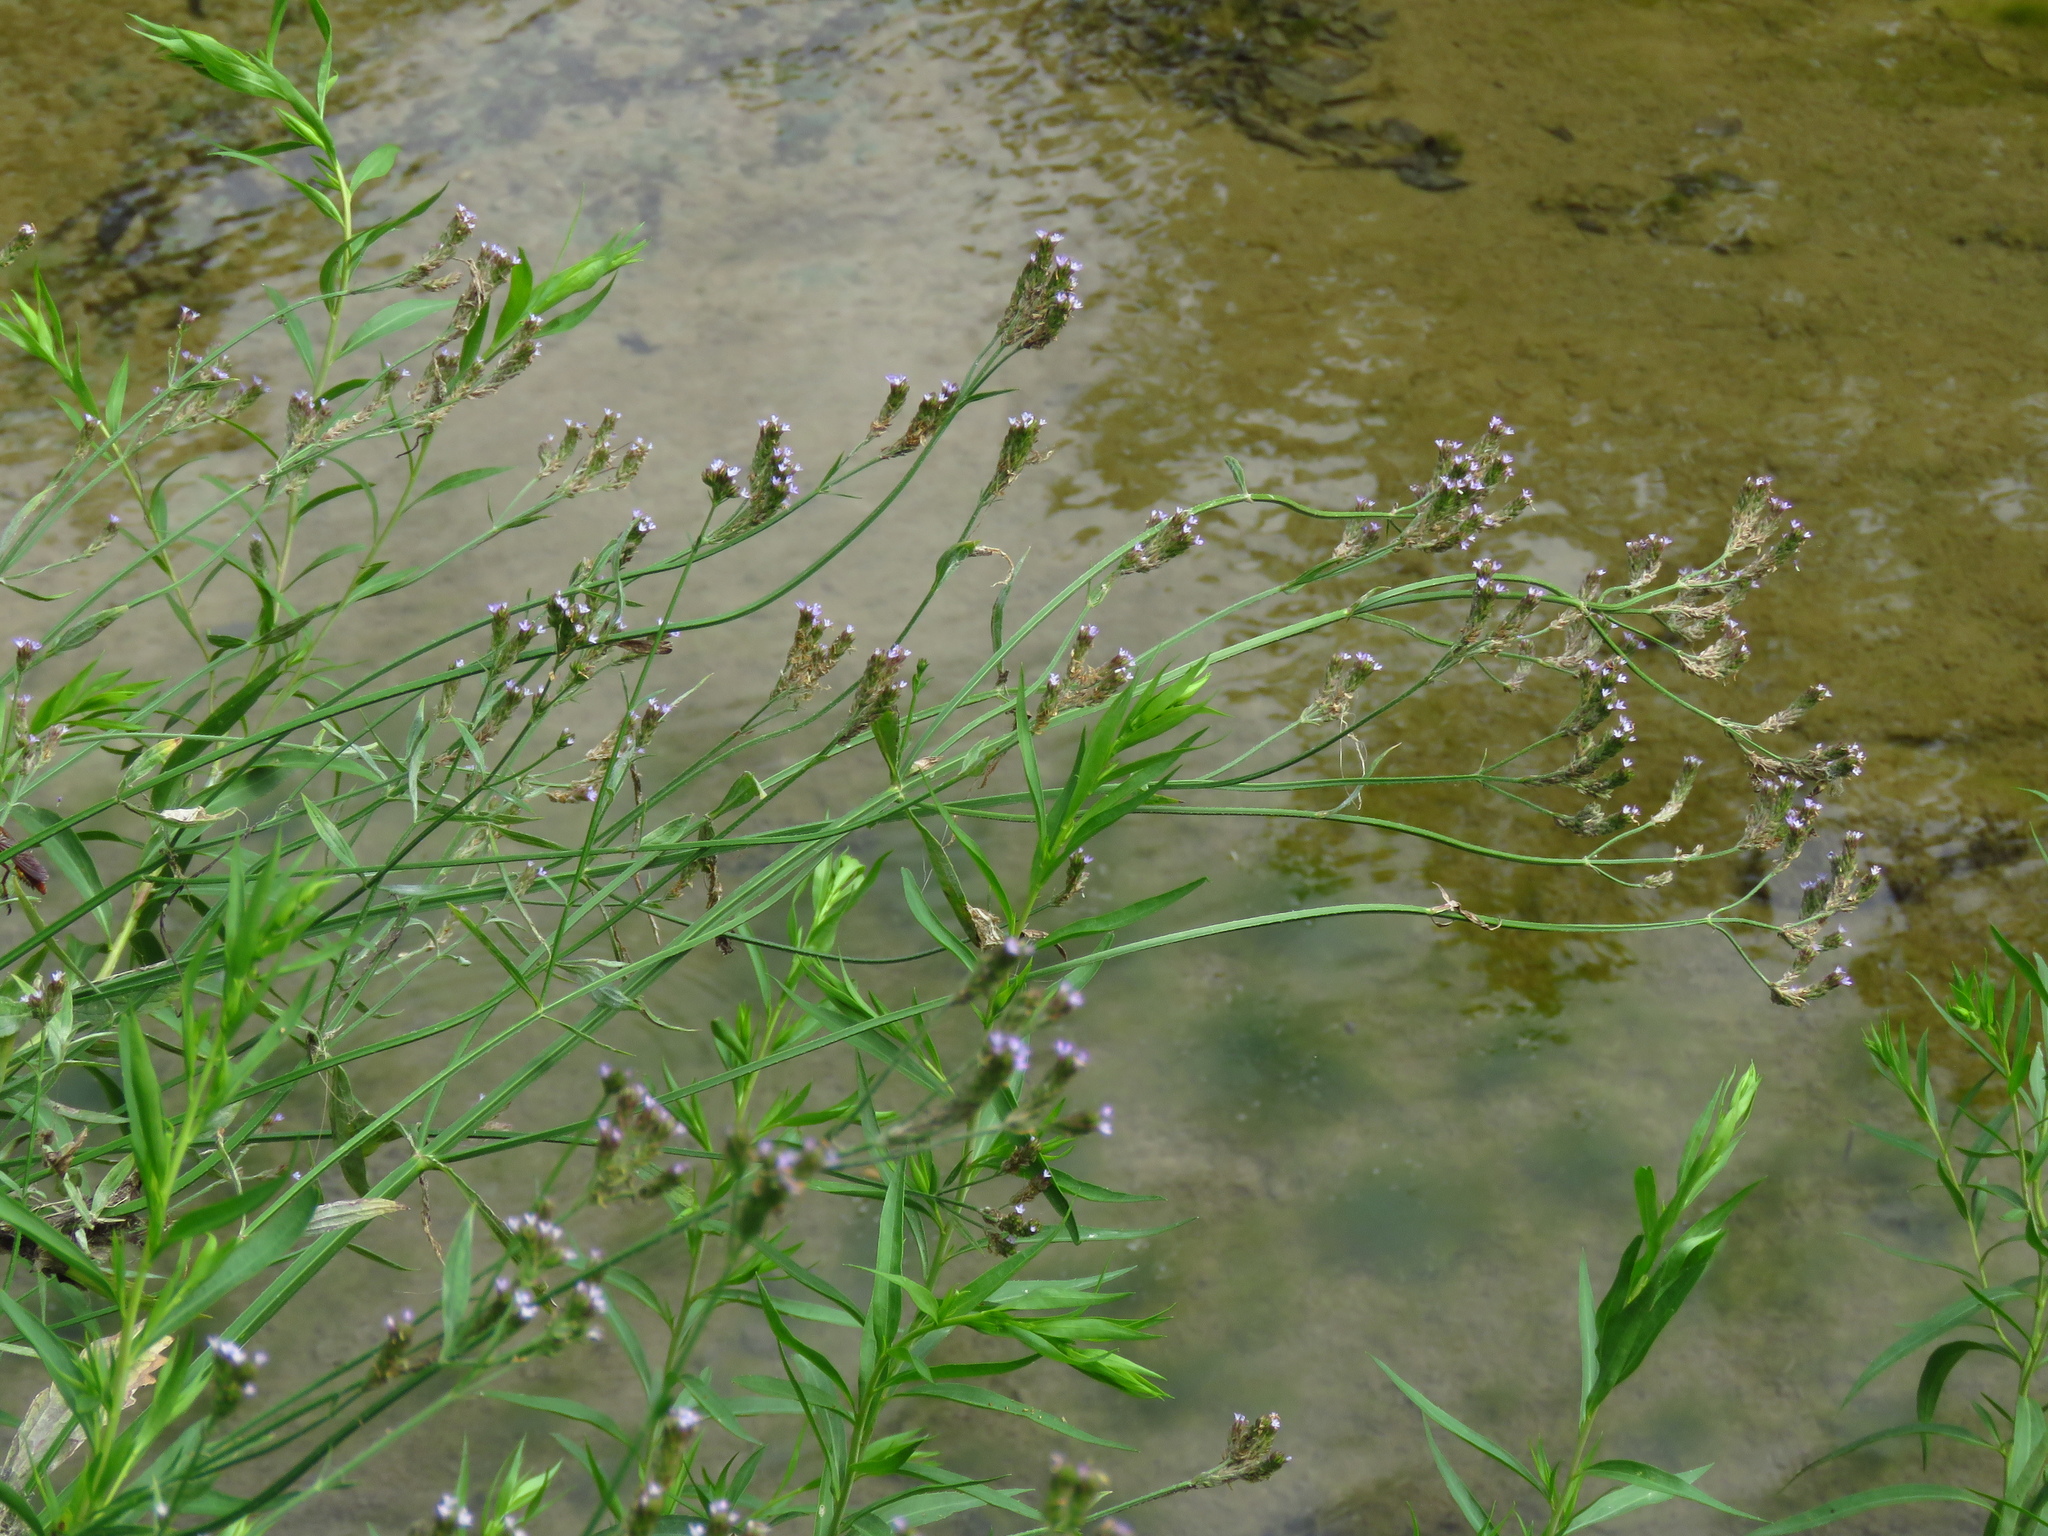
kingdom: Plantae
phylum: Tracheophyta
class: Magnoliopsida
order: Lamiales
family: Verbenaceae
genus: Verbena
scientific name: Verbena brasiliensis
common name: Brazilian vervain
